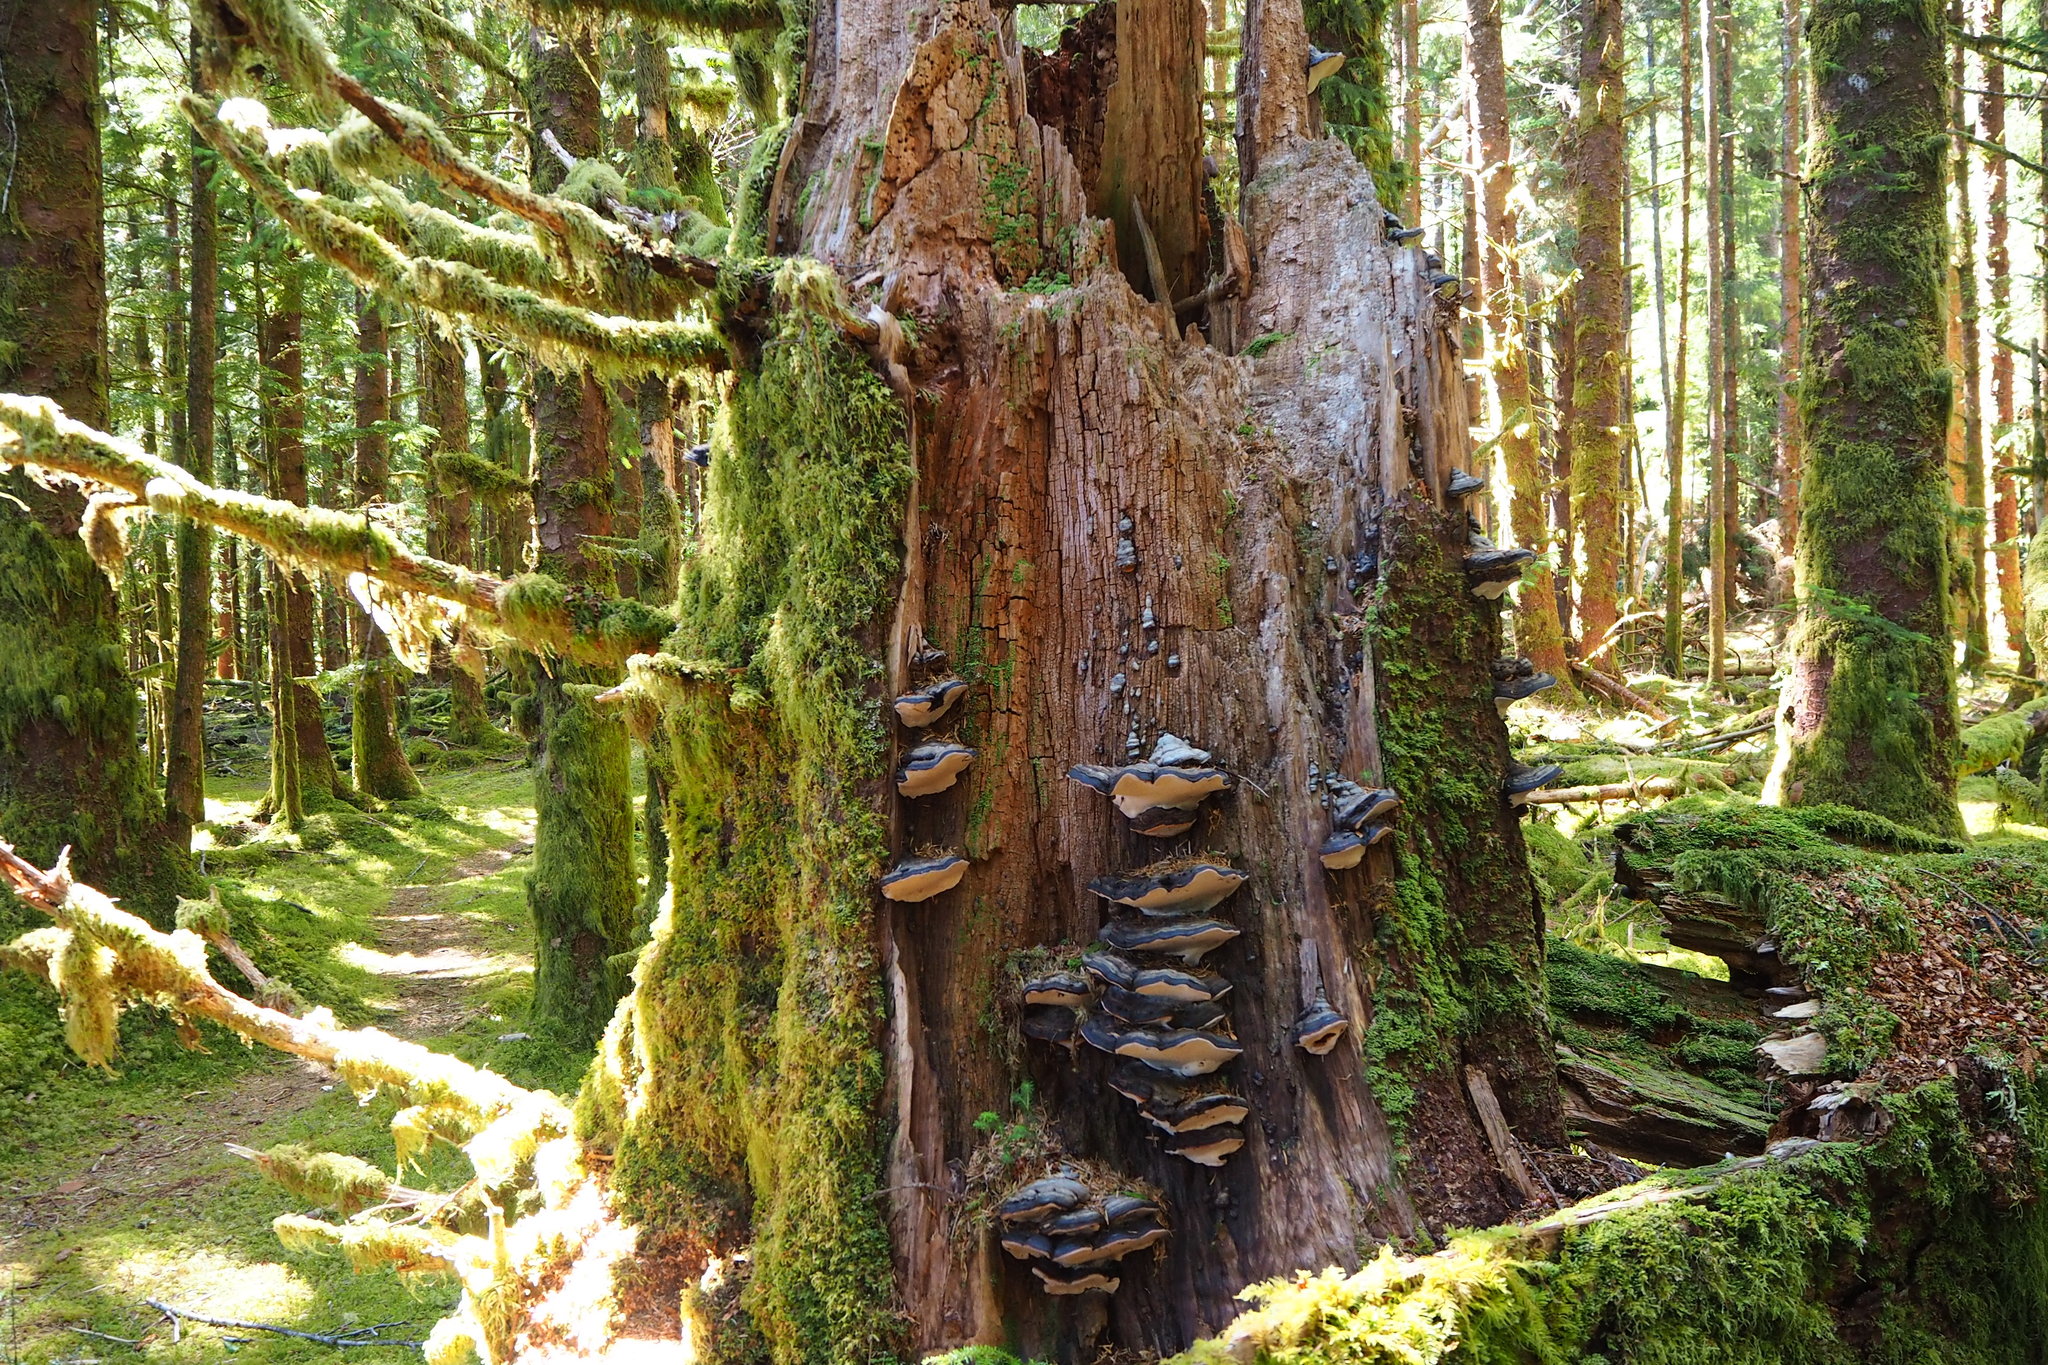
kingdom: Fungi
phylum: Basidiomycota
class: Agaricomycetes
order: Polyporales
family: Fomitopsidaceae
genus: Fomitopsis
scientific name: Fomitopsis ochracea
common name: American brown fomitopsis
